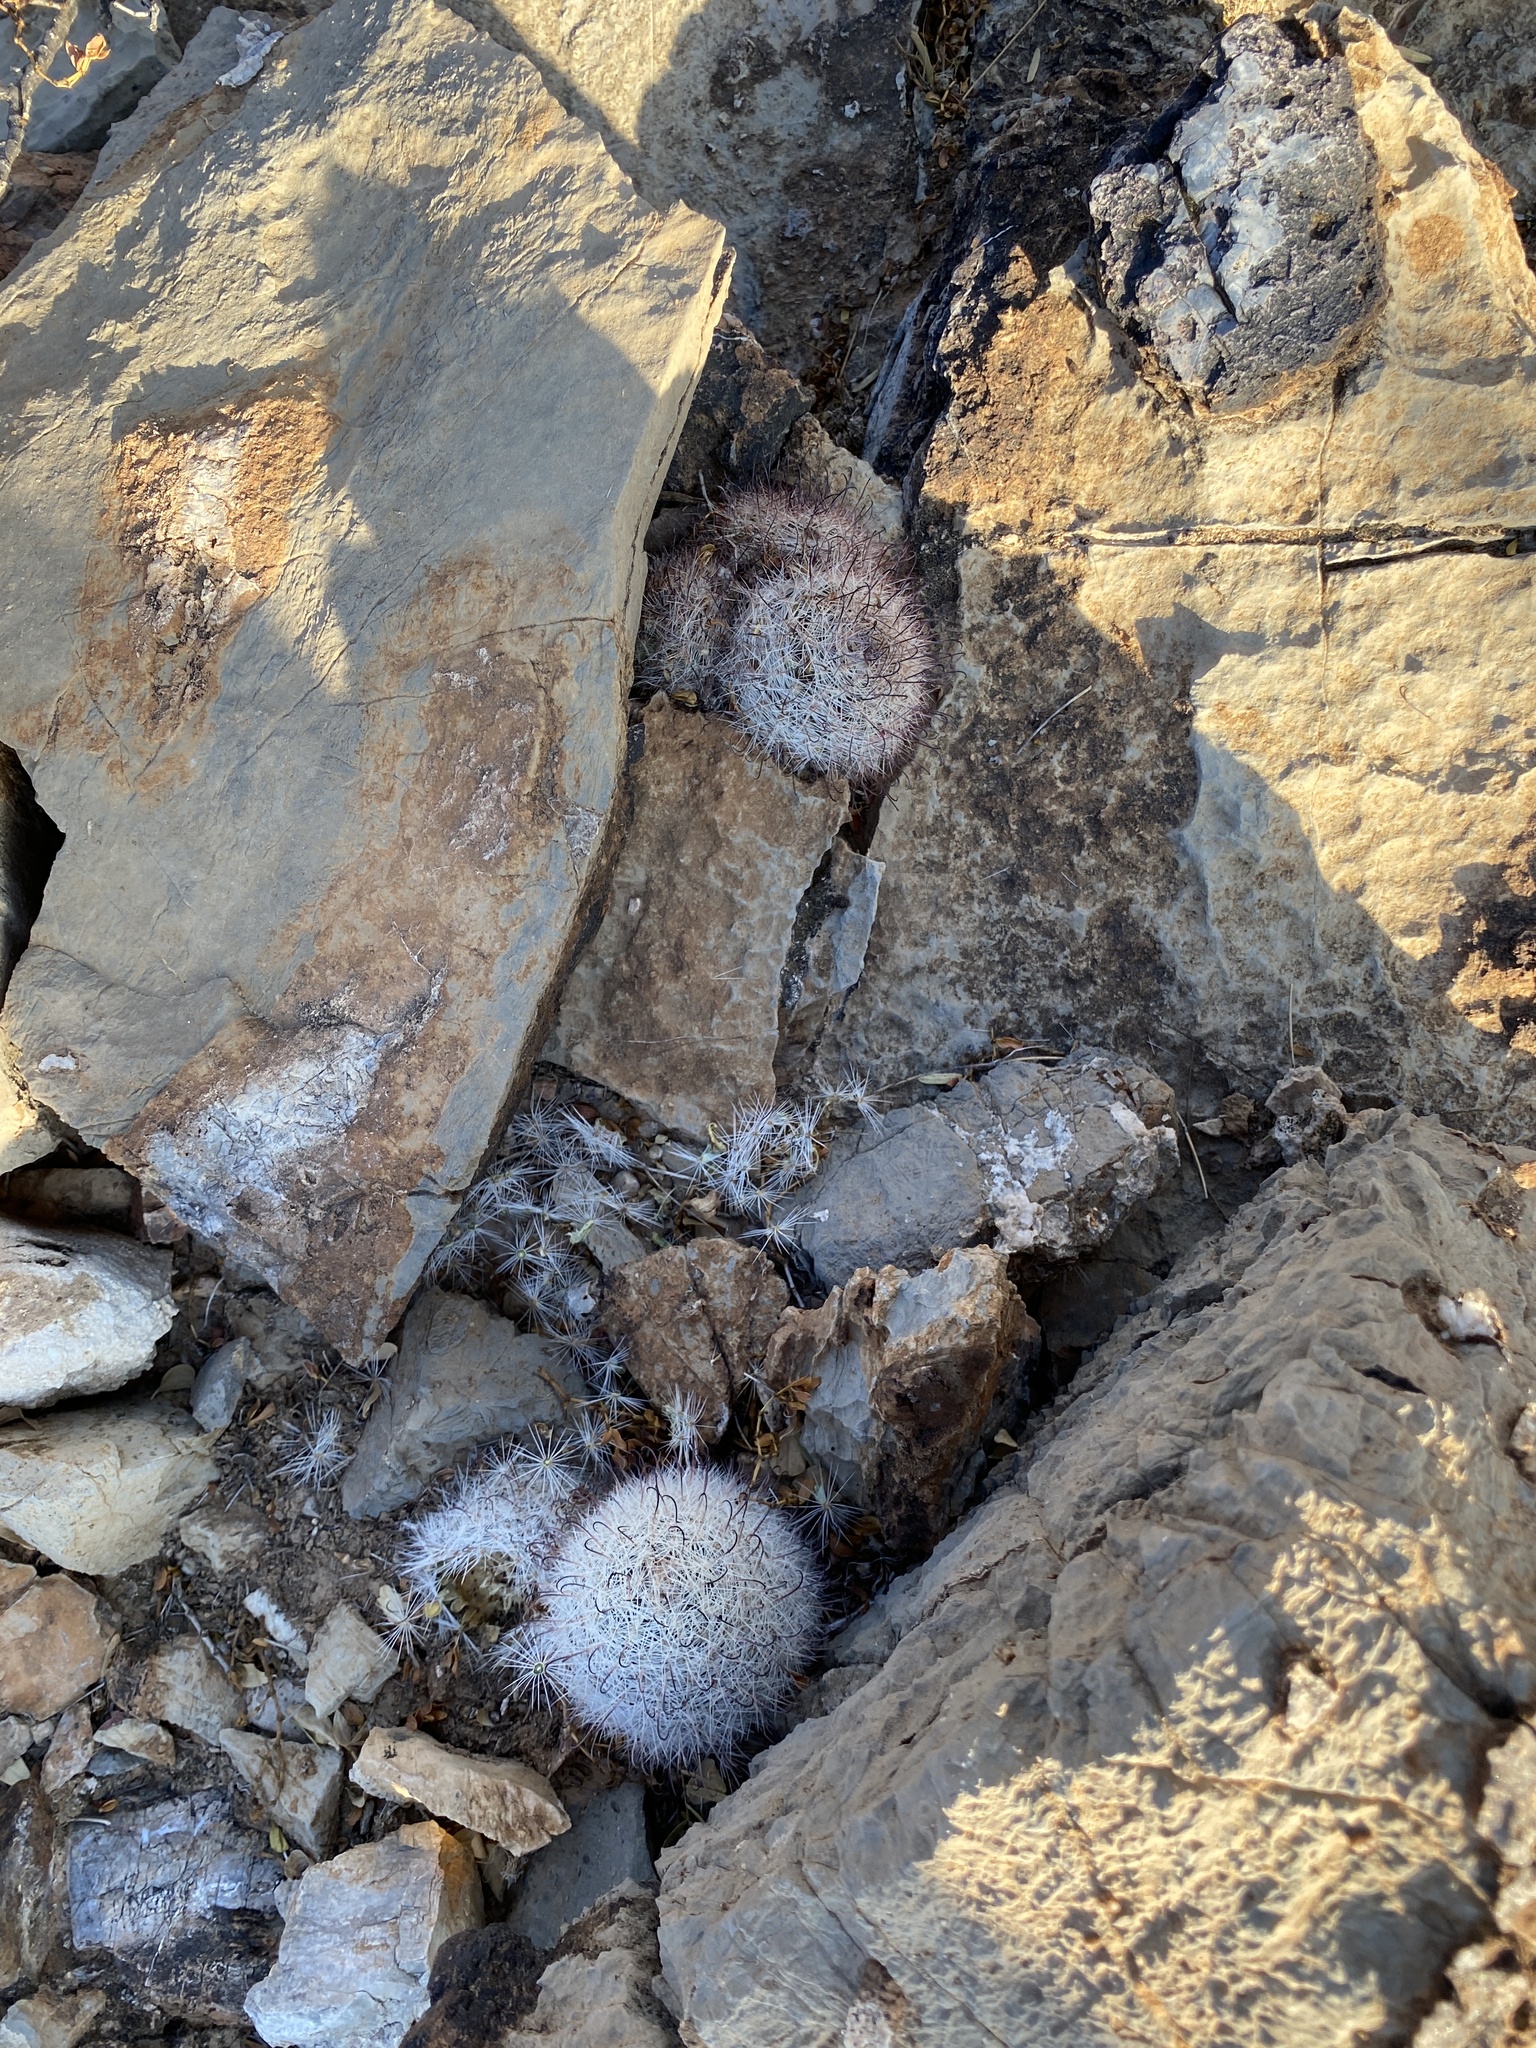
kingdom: Plantae
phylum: Tracheophyta
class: Magnoliopsida
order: Caryophyllales
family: Cactaceae
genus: Cochemiea
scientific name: Cochemiea grahamii
